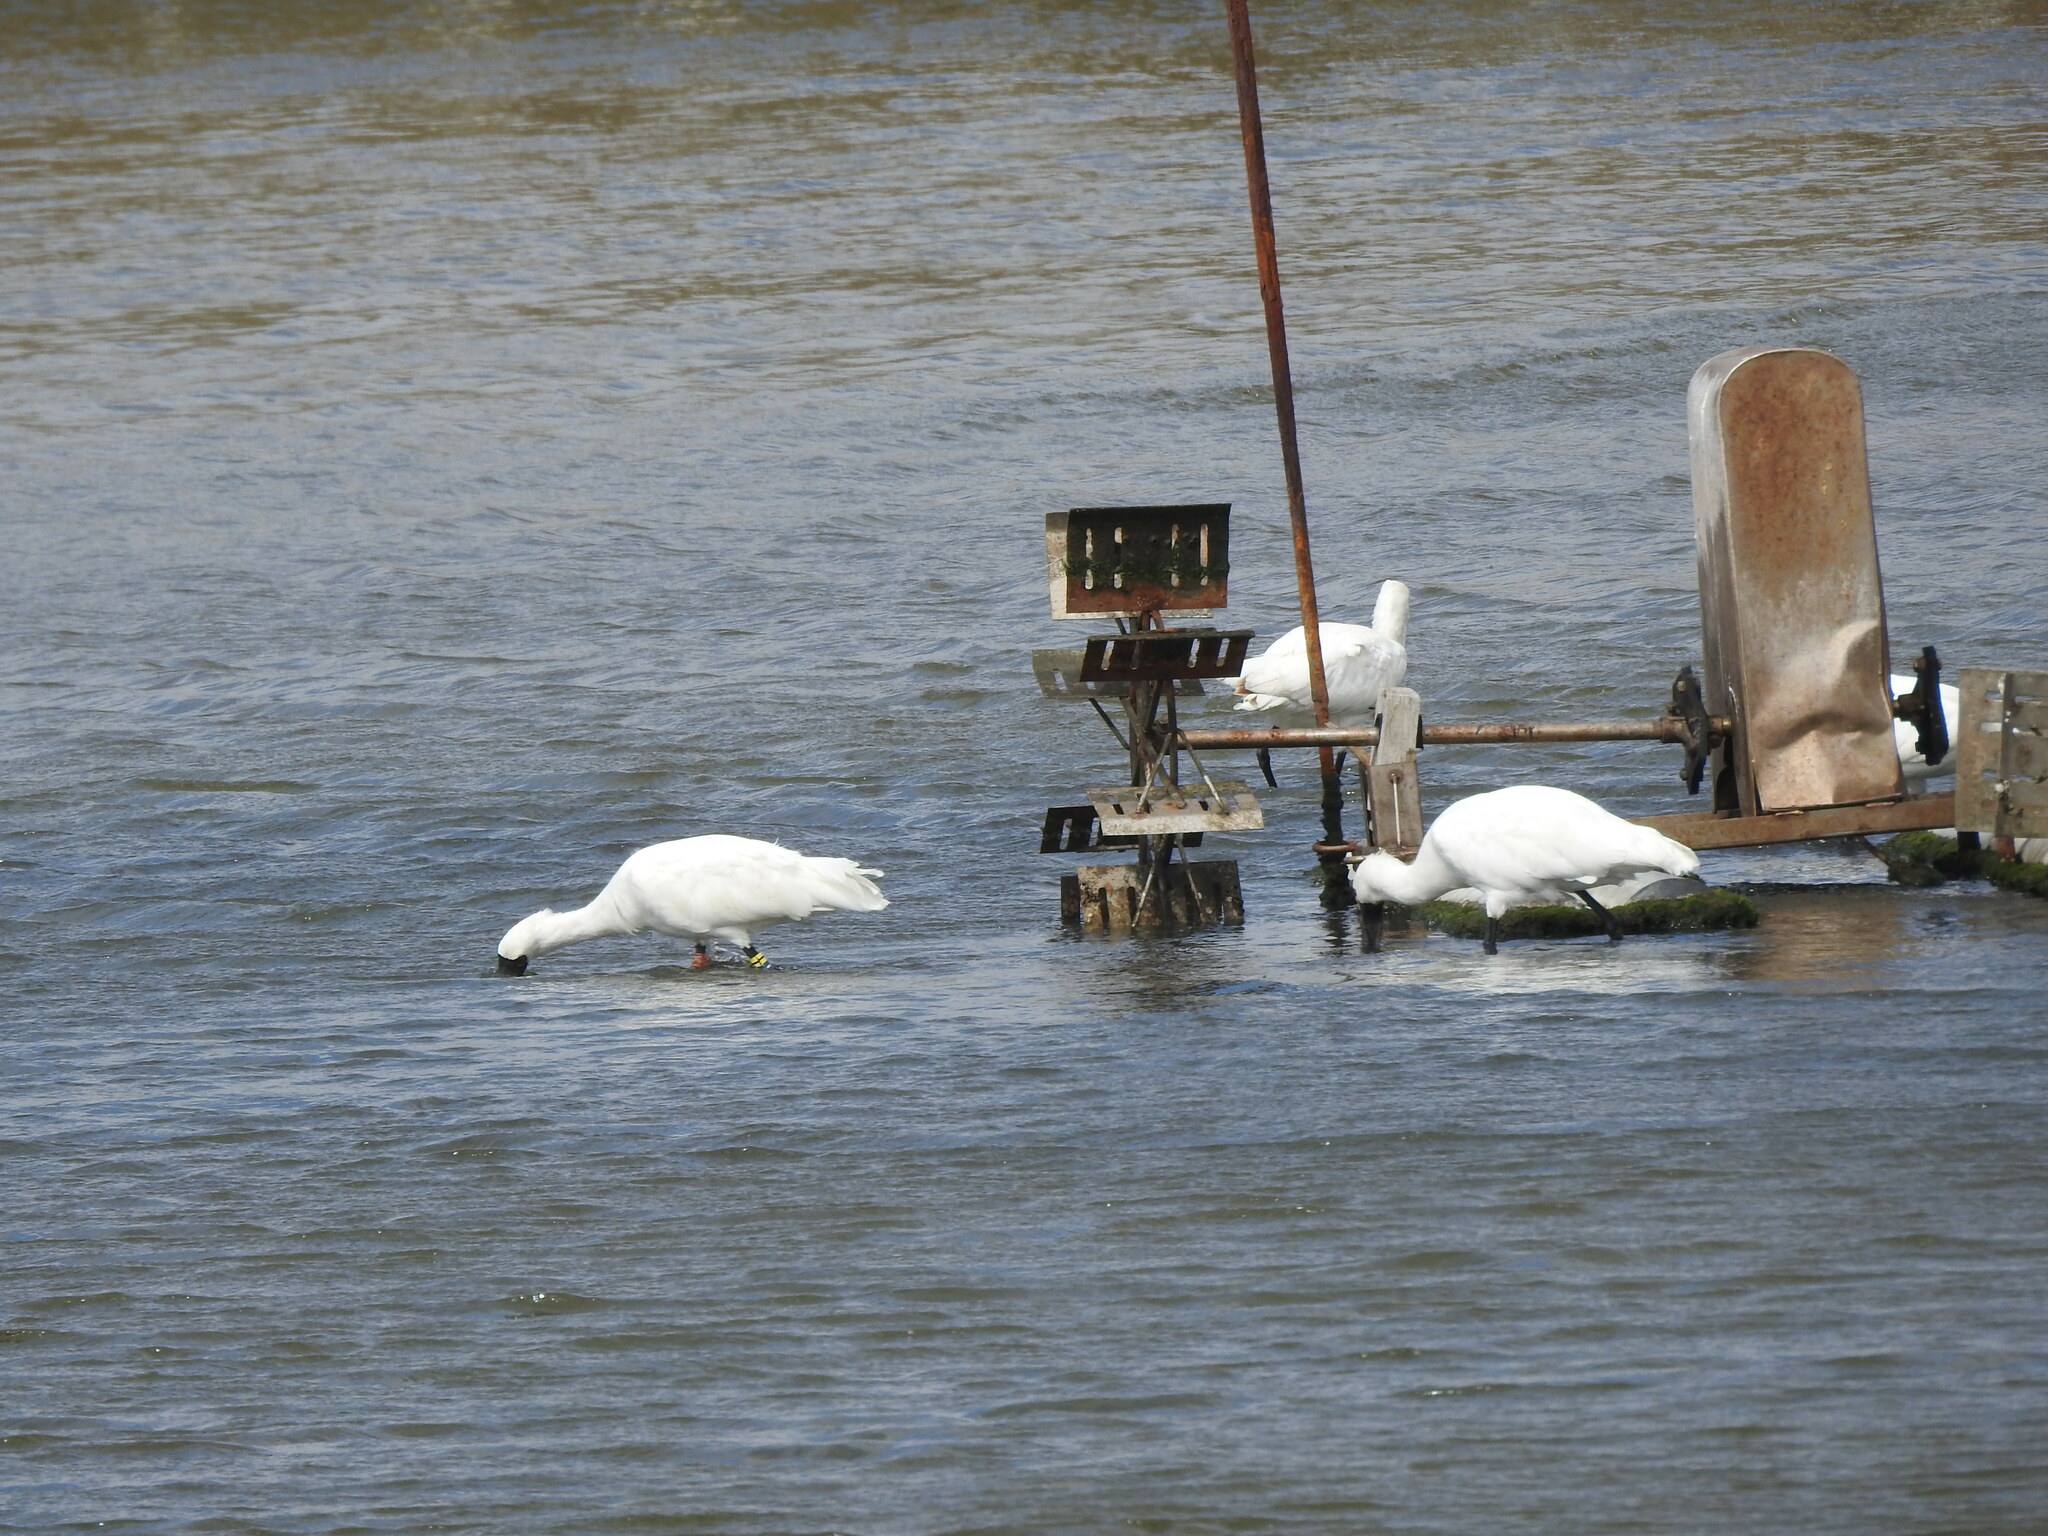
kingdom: Animalia
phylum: Chordata
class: Aves
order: Pelecaniformes
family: Threskiornithidae
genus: Platalea
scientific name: Platalea minor
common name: Black-faced spoonbill
